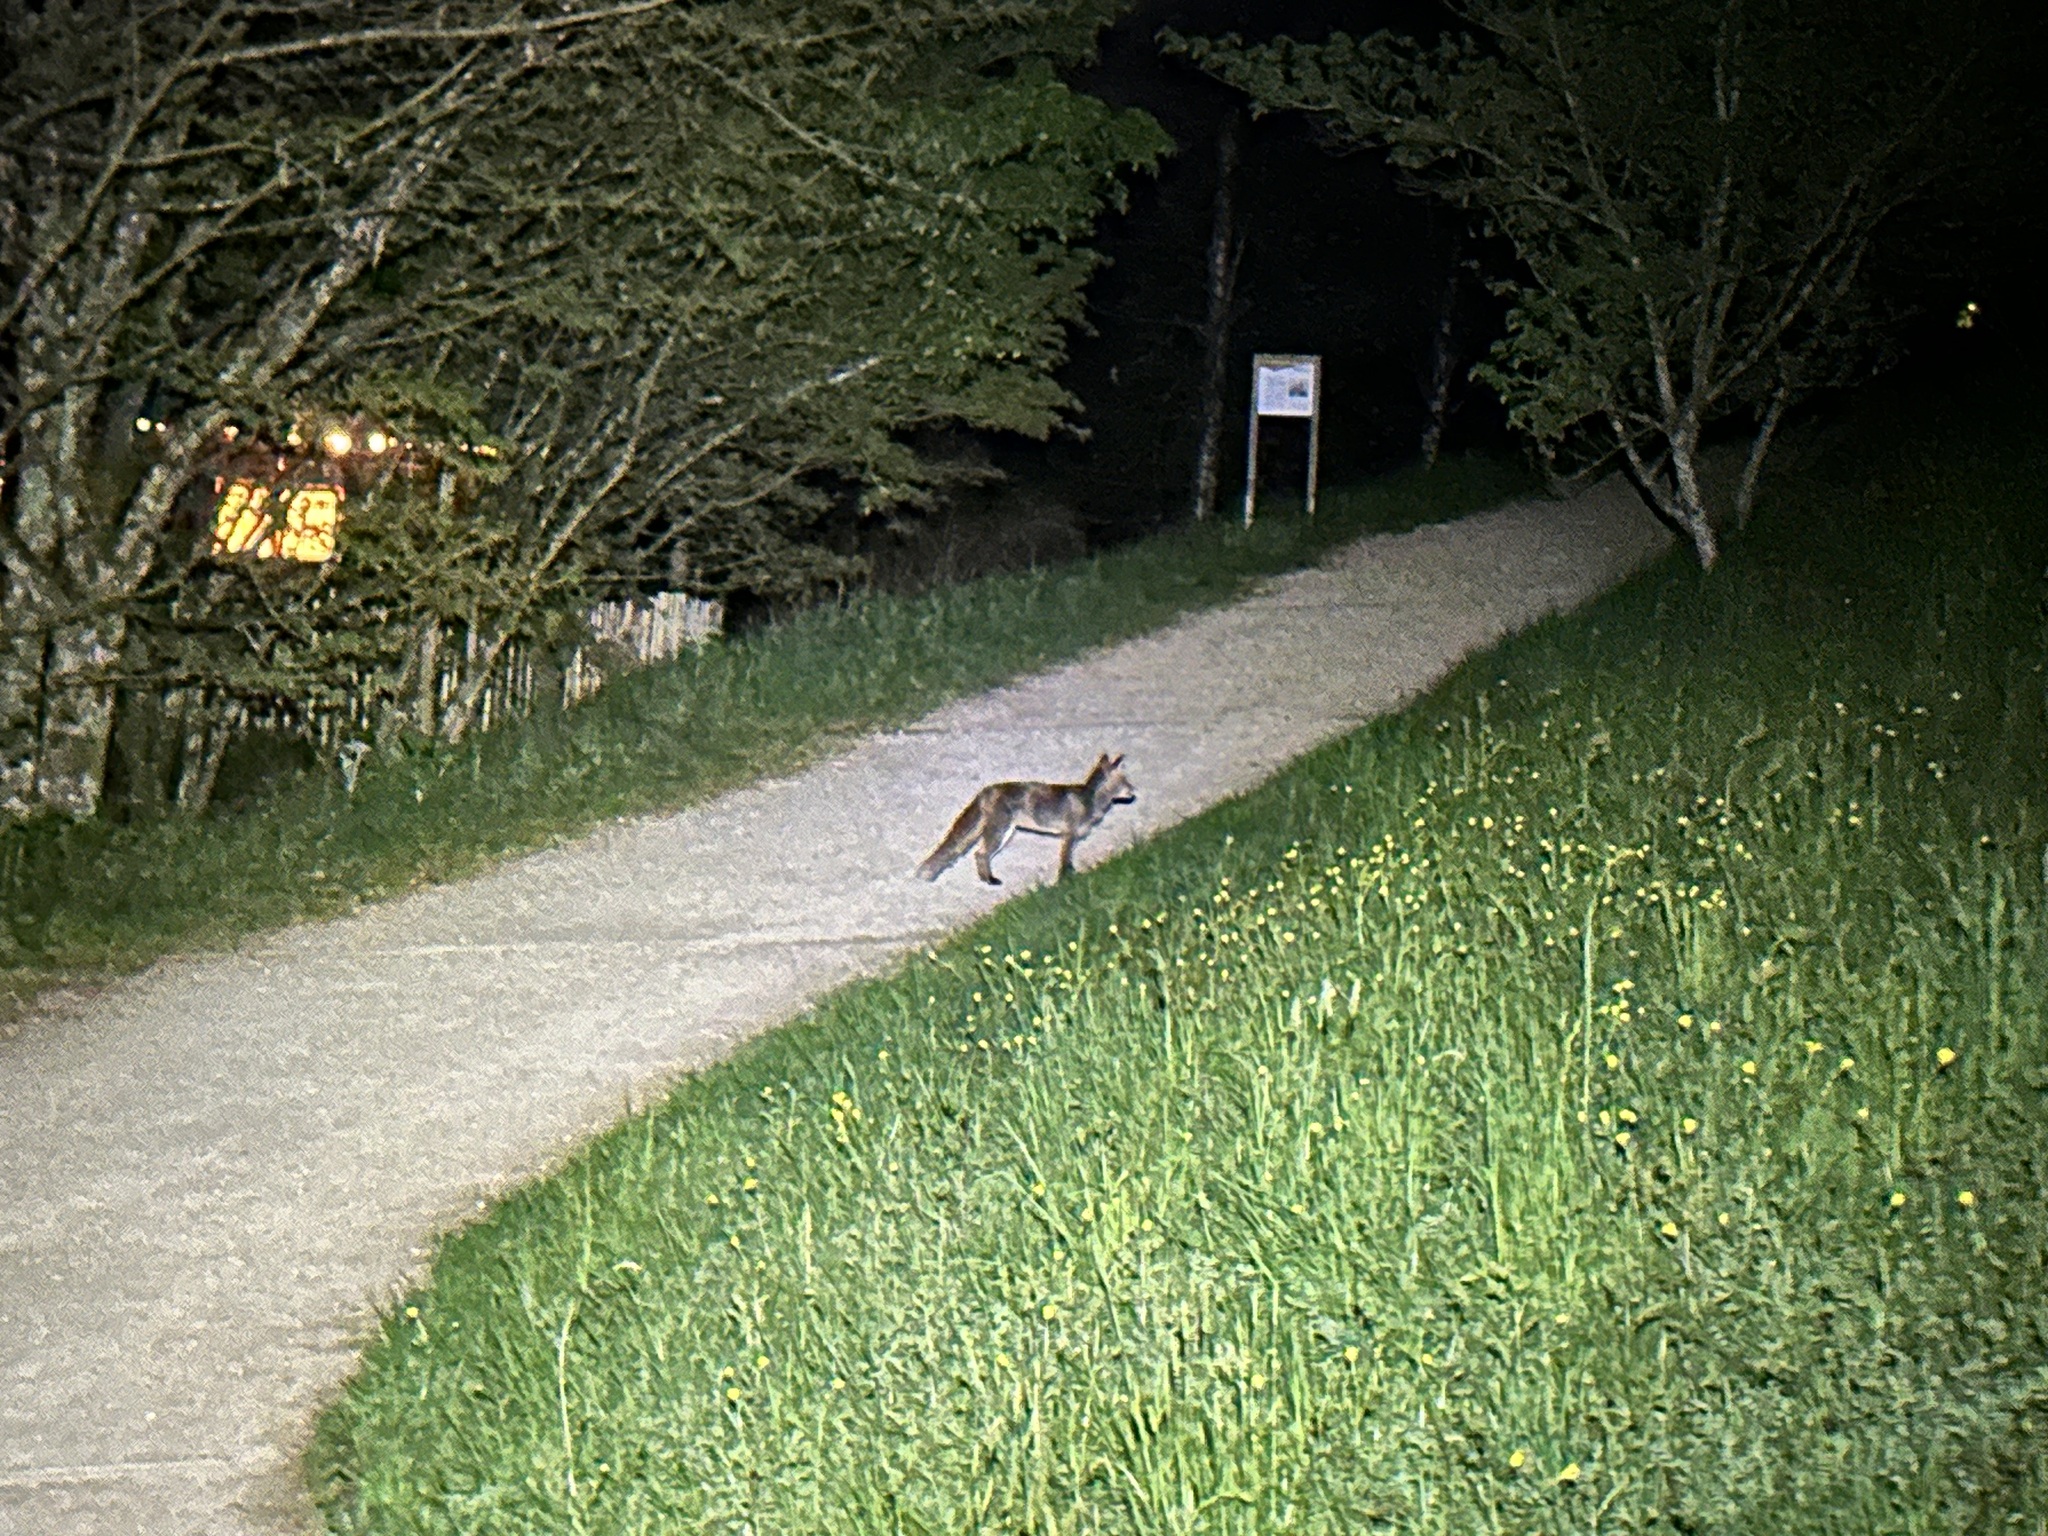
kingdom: Animalia
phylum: Chordata
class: Mammalia
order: Carnivora
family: Canidae
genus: Vulpes
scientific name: Vulpes vulpes
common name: Red fox
